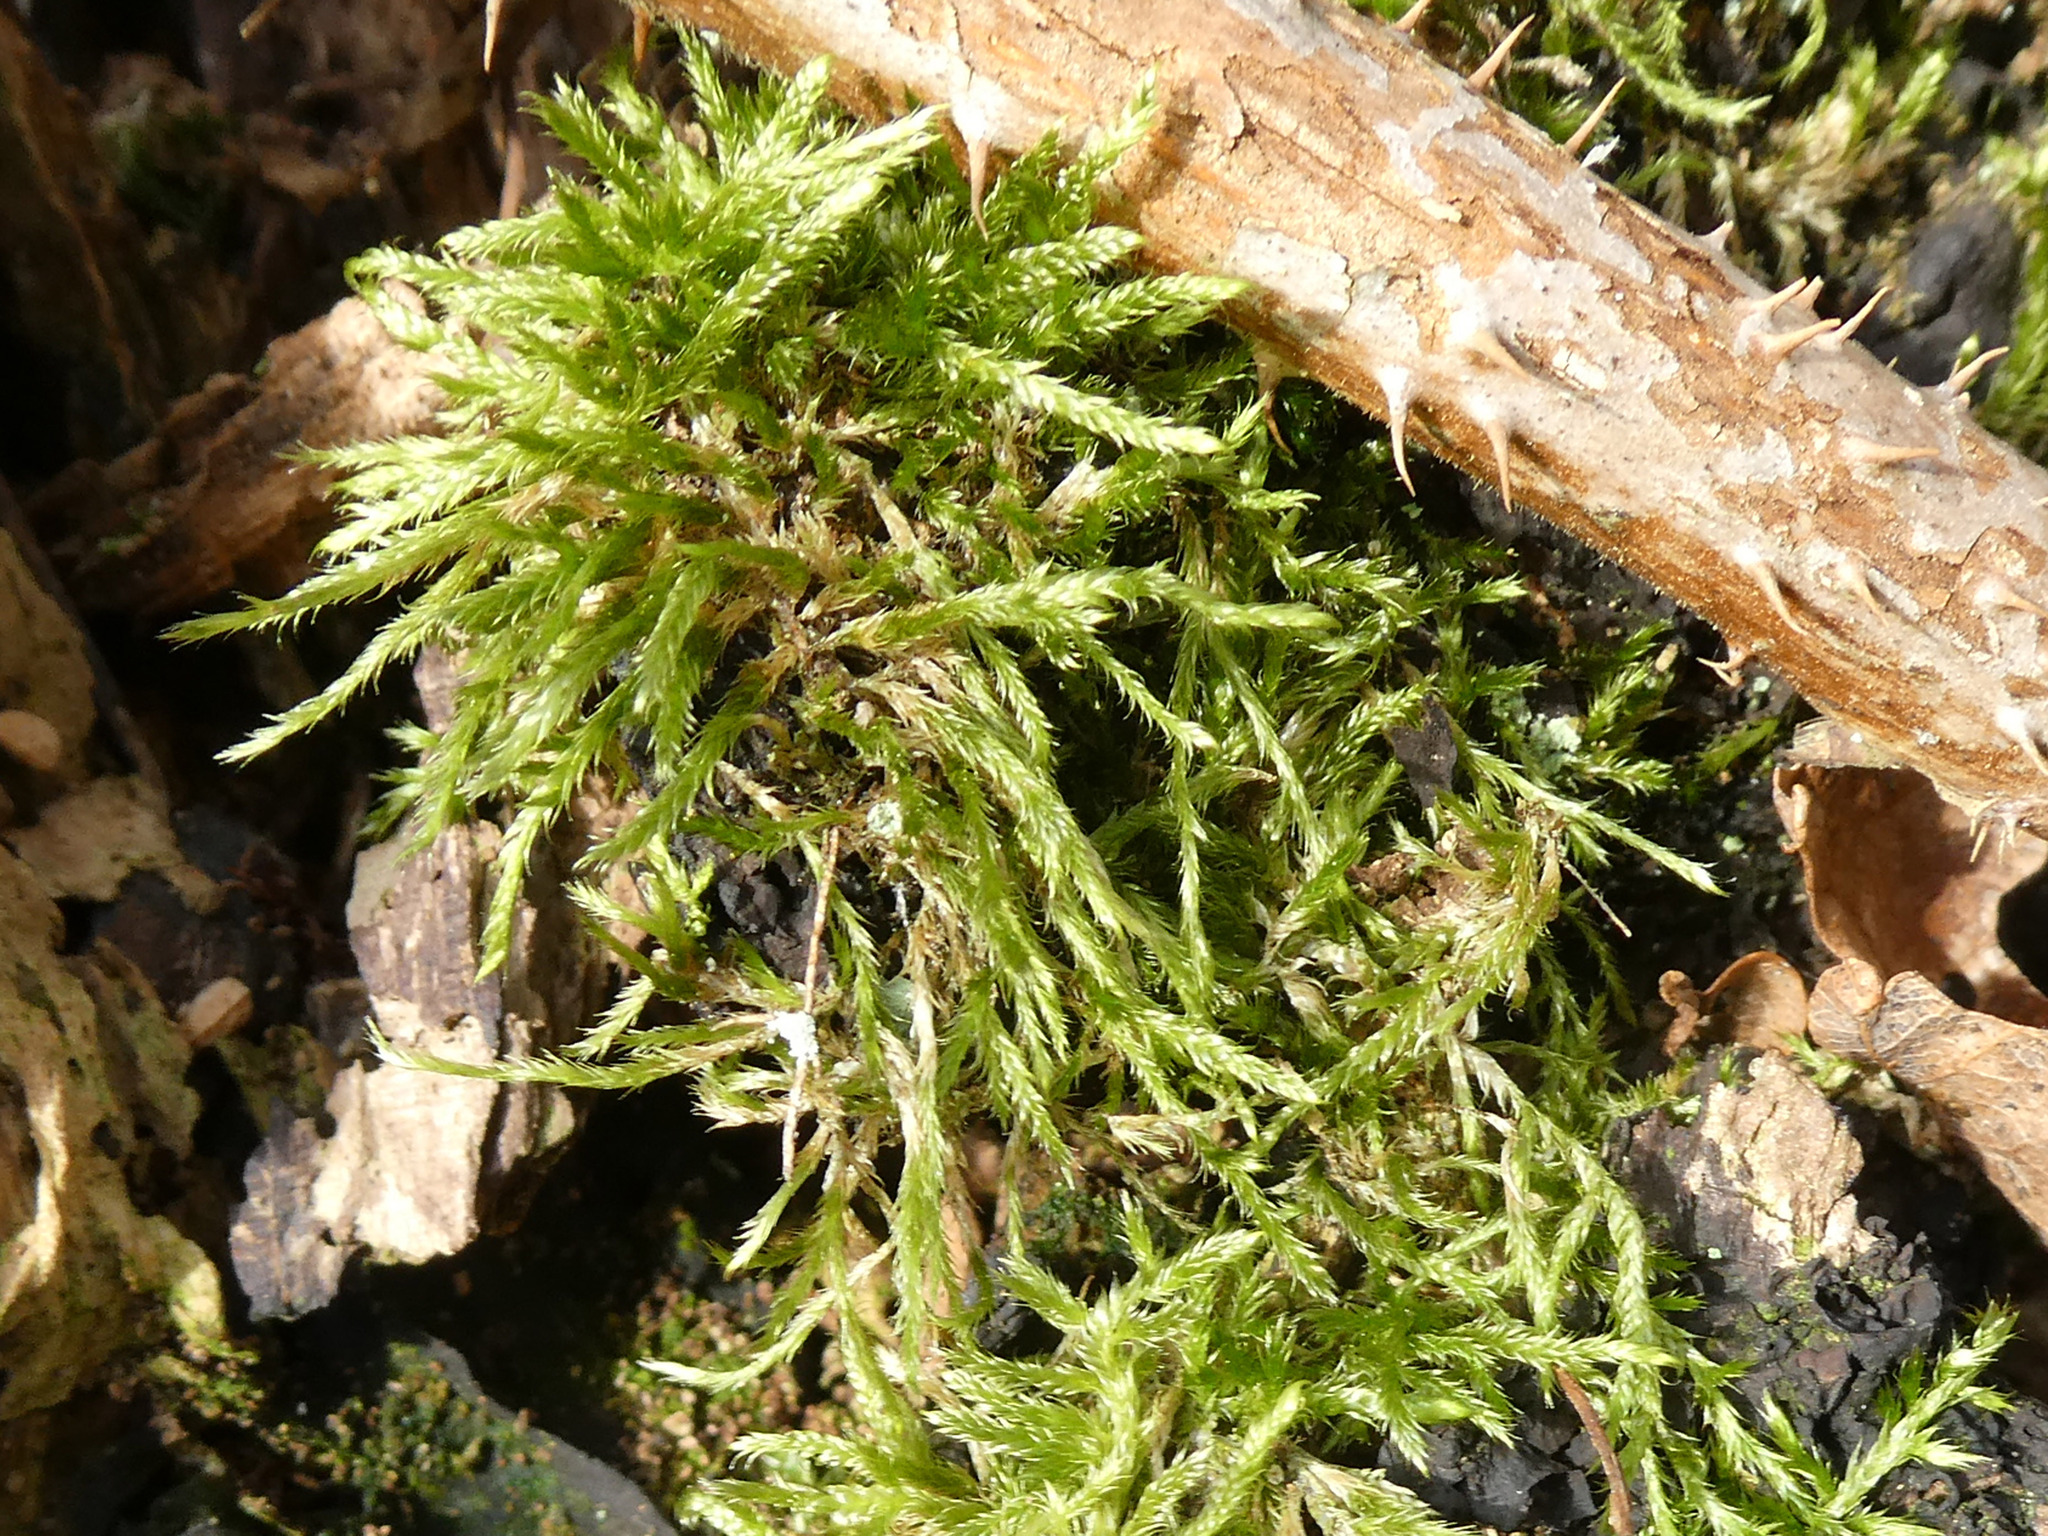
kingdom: Plantae
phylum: Bryophyta
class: Bryopsida
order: Hypnales
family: Hypnaceae
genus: Hypnum
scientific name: Hypnum cupressiforme
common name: Cypress-leaved plait-moss
